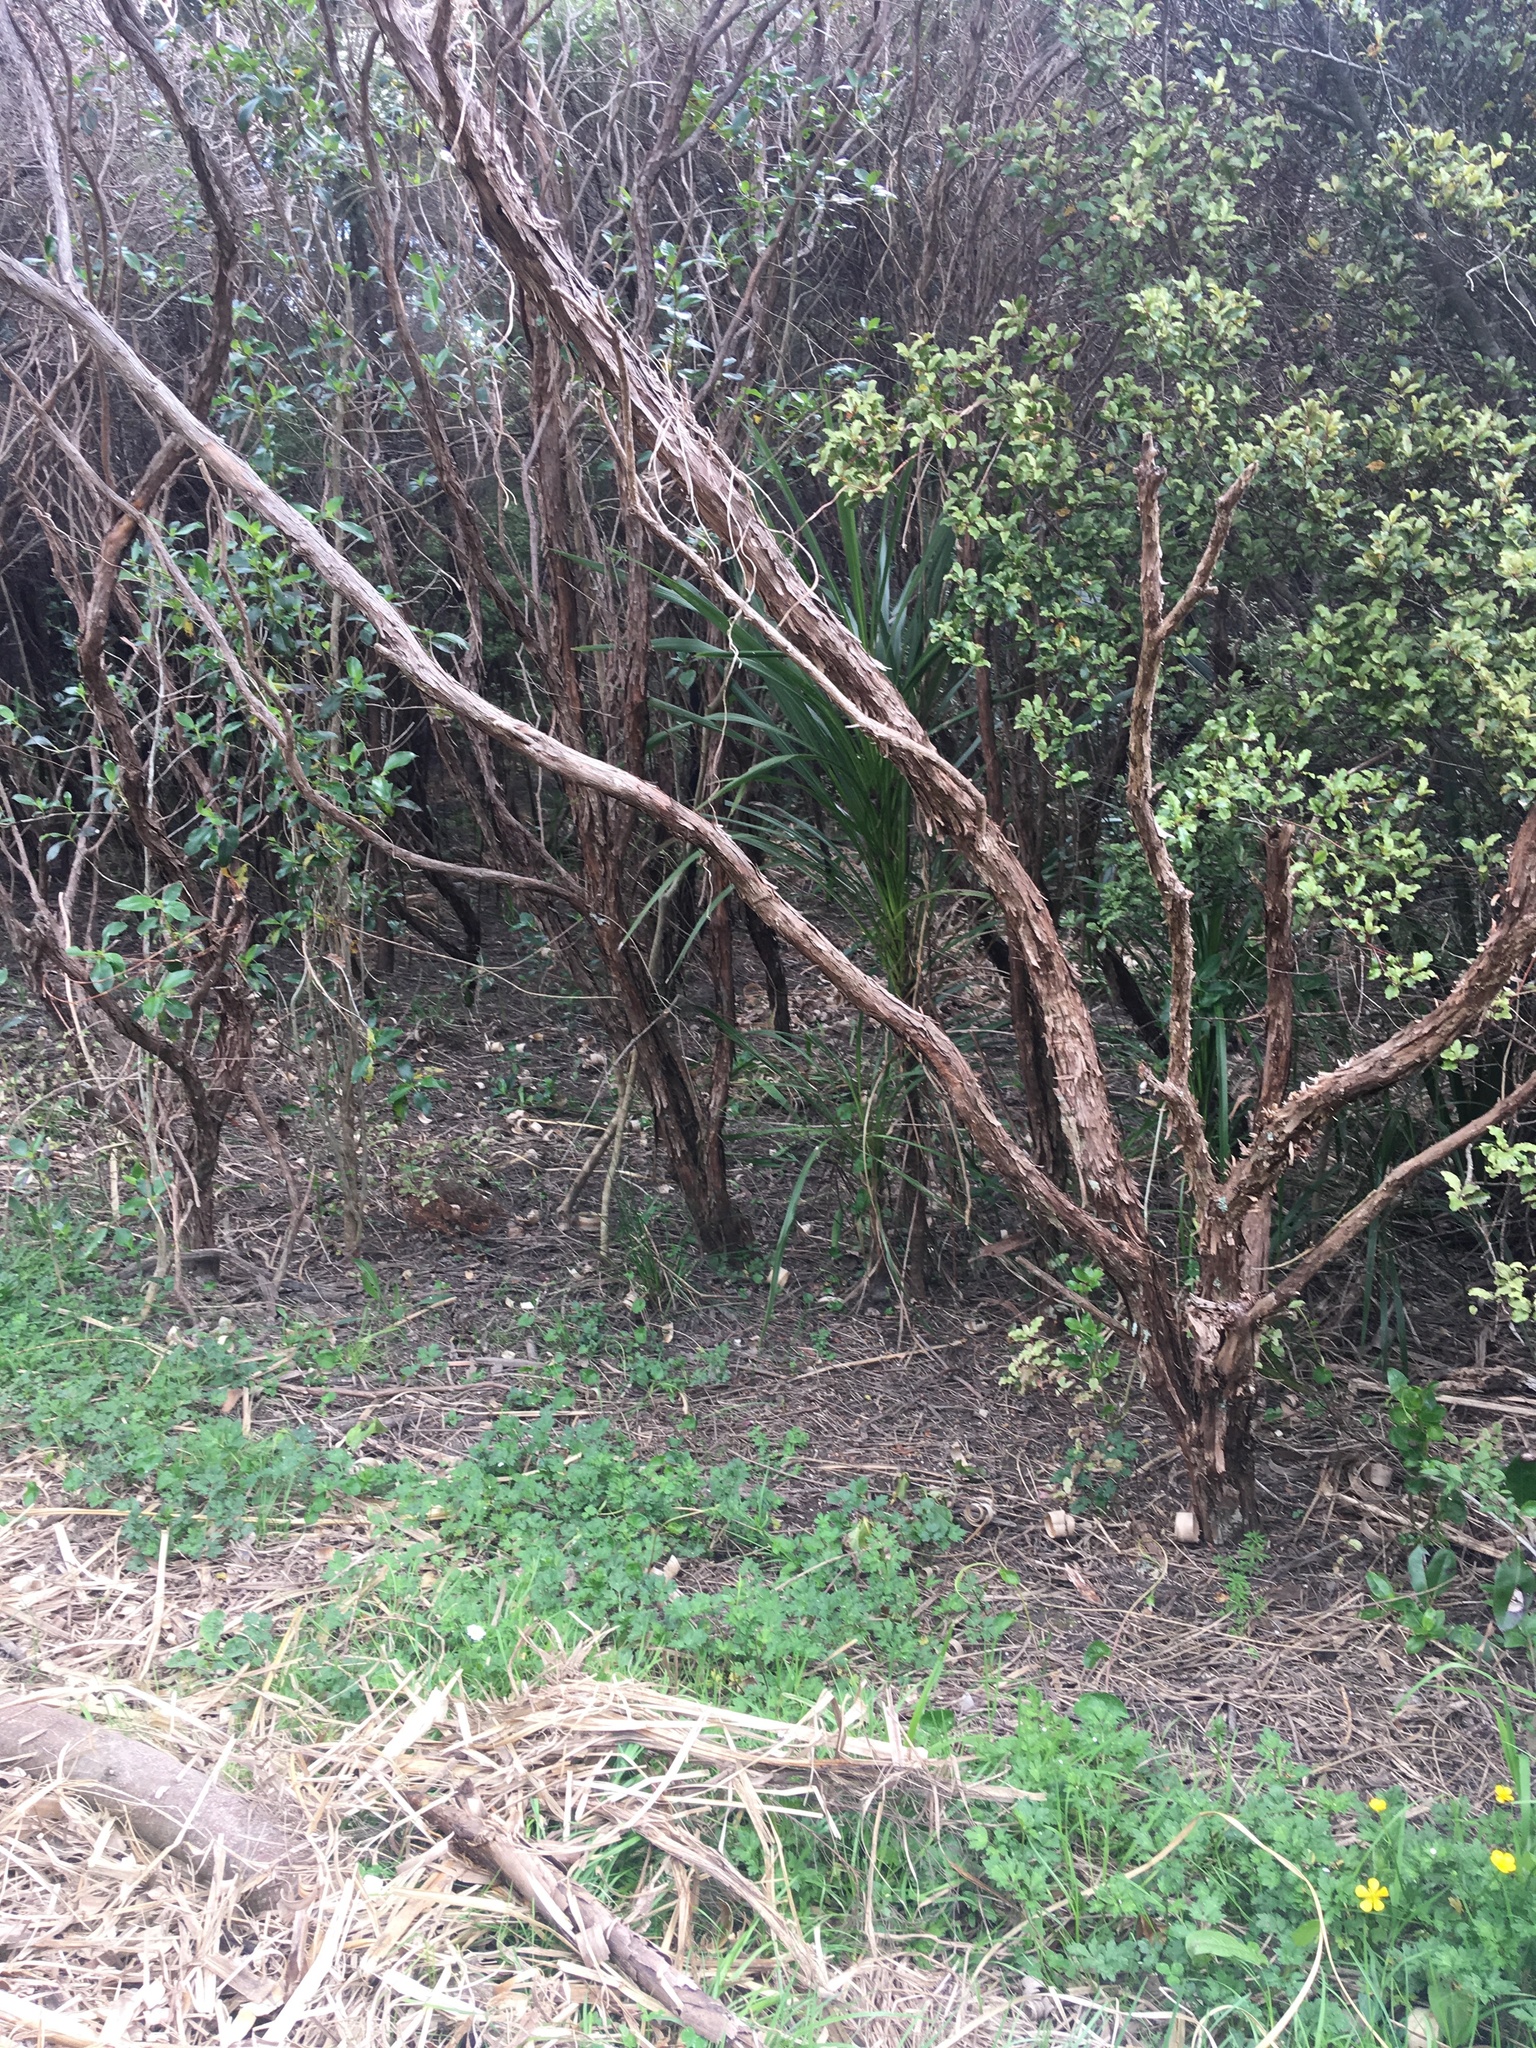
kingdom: Plantae
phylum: Tracheophyta
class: Magnoliopsida
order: Ranunculales
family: Ranunculaceae
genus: Ranunculus
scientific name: Ranunculus repens
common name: Creeping buttercup
